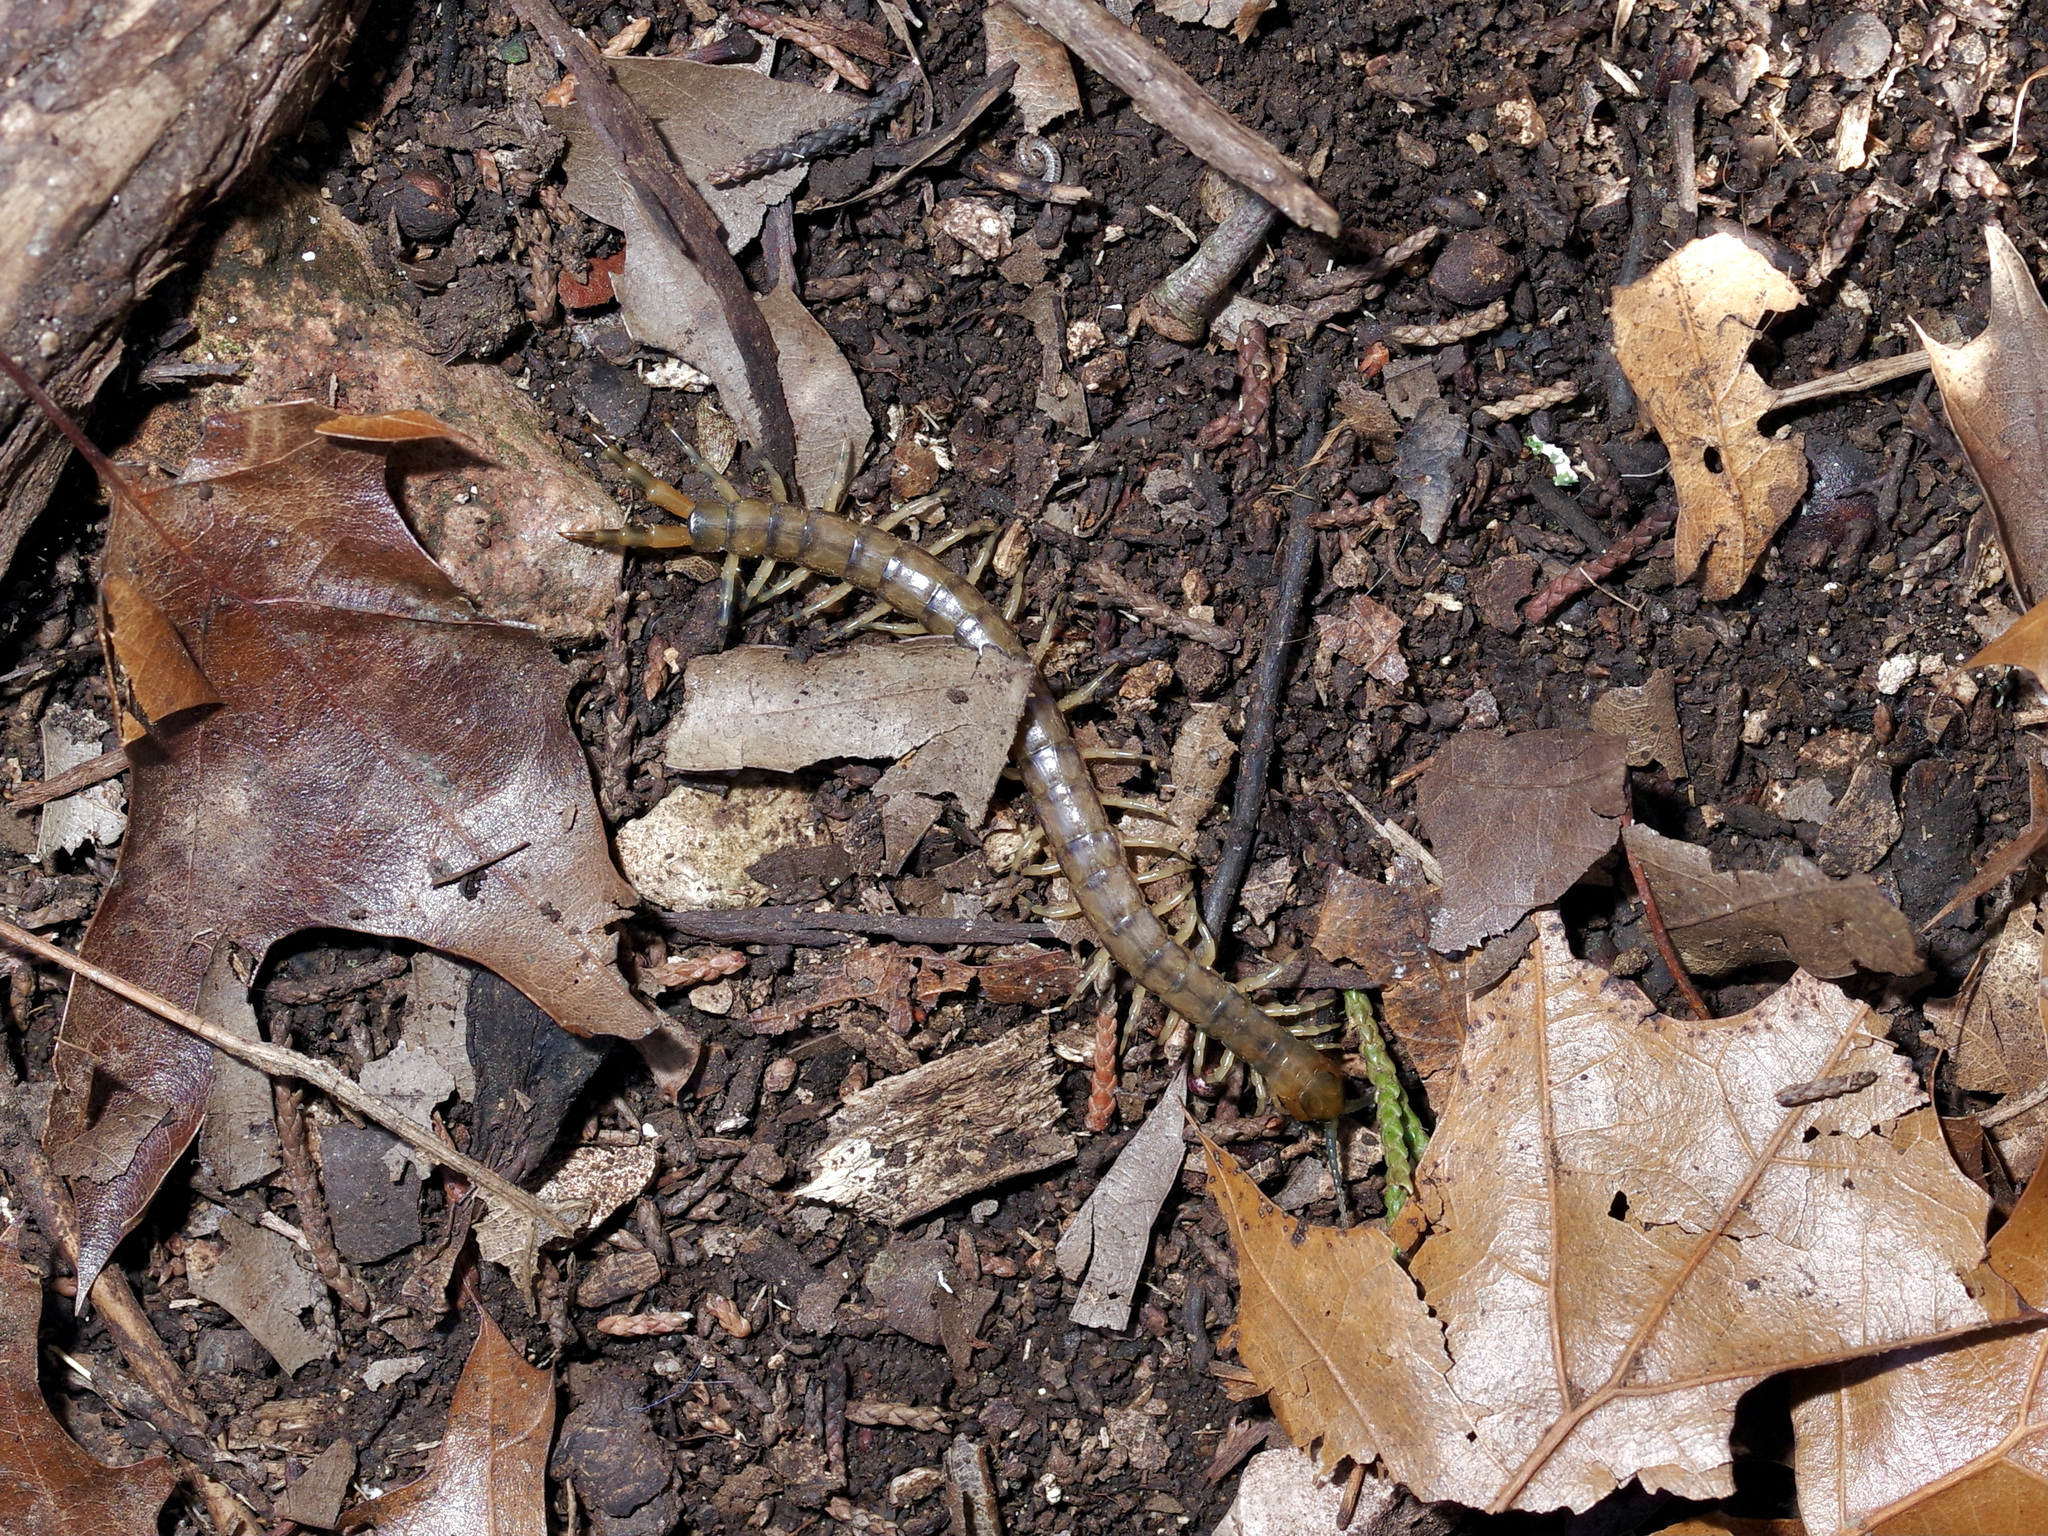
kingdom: Animalia
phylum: Arthropoda
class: Chilopoda
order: Scolopendromorpha
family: Scolopendridae
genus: Hemiscolopendra
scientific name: Hemiscolopendra marginata
